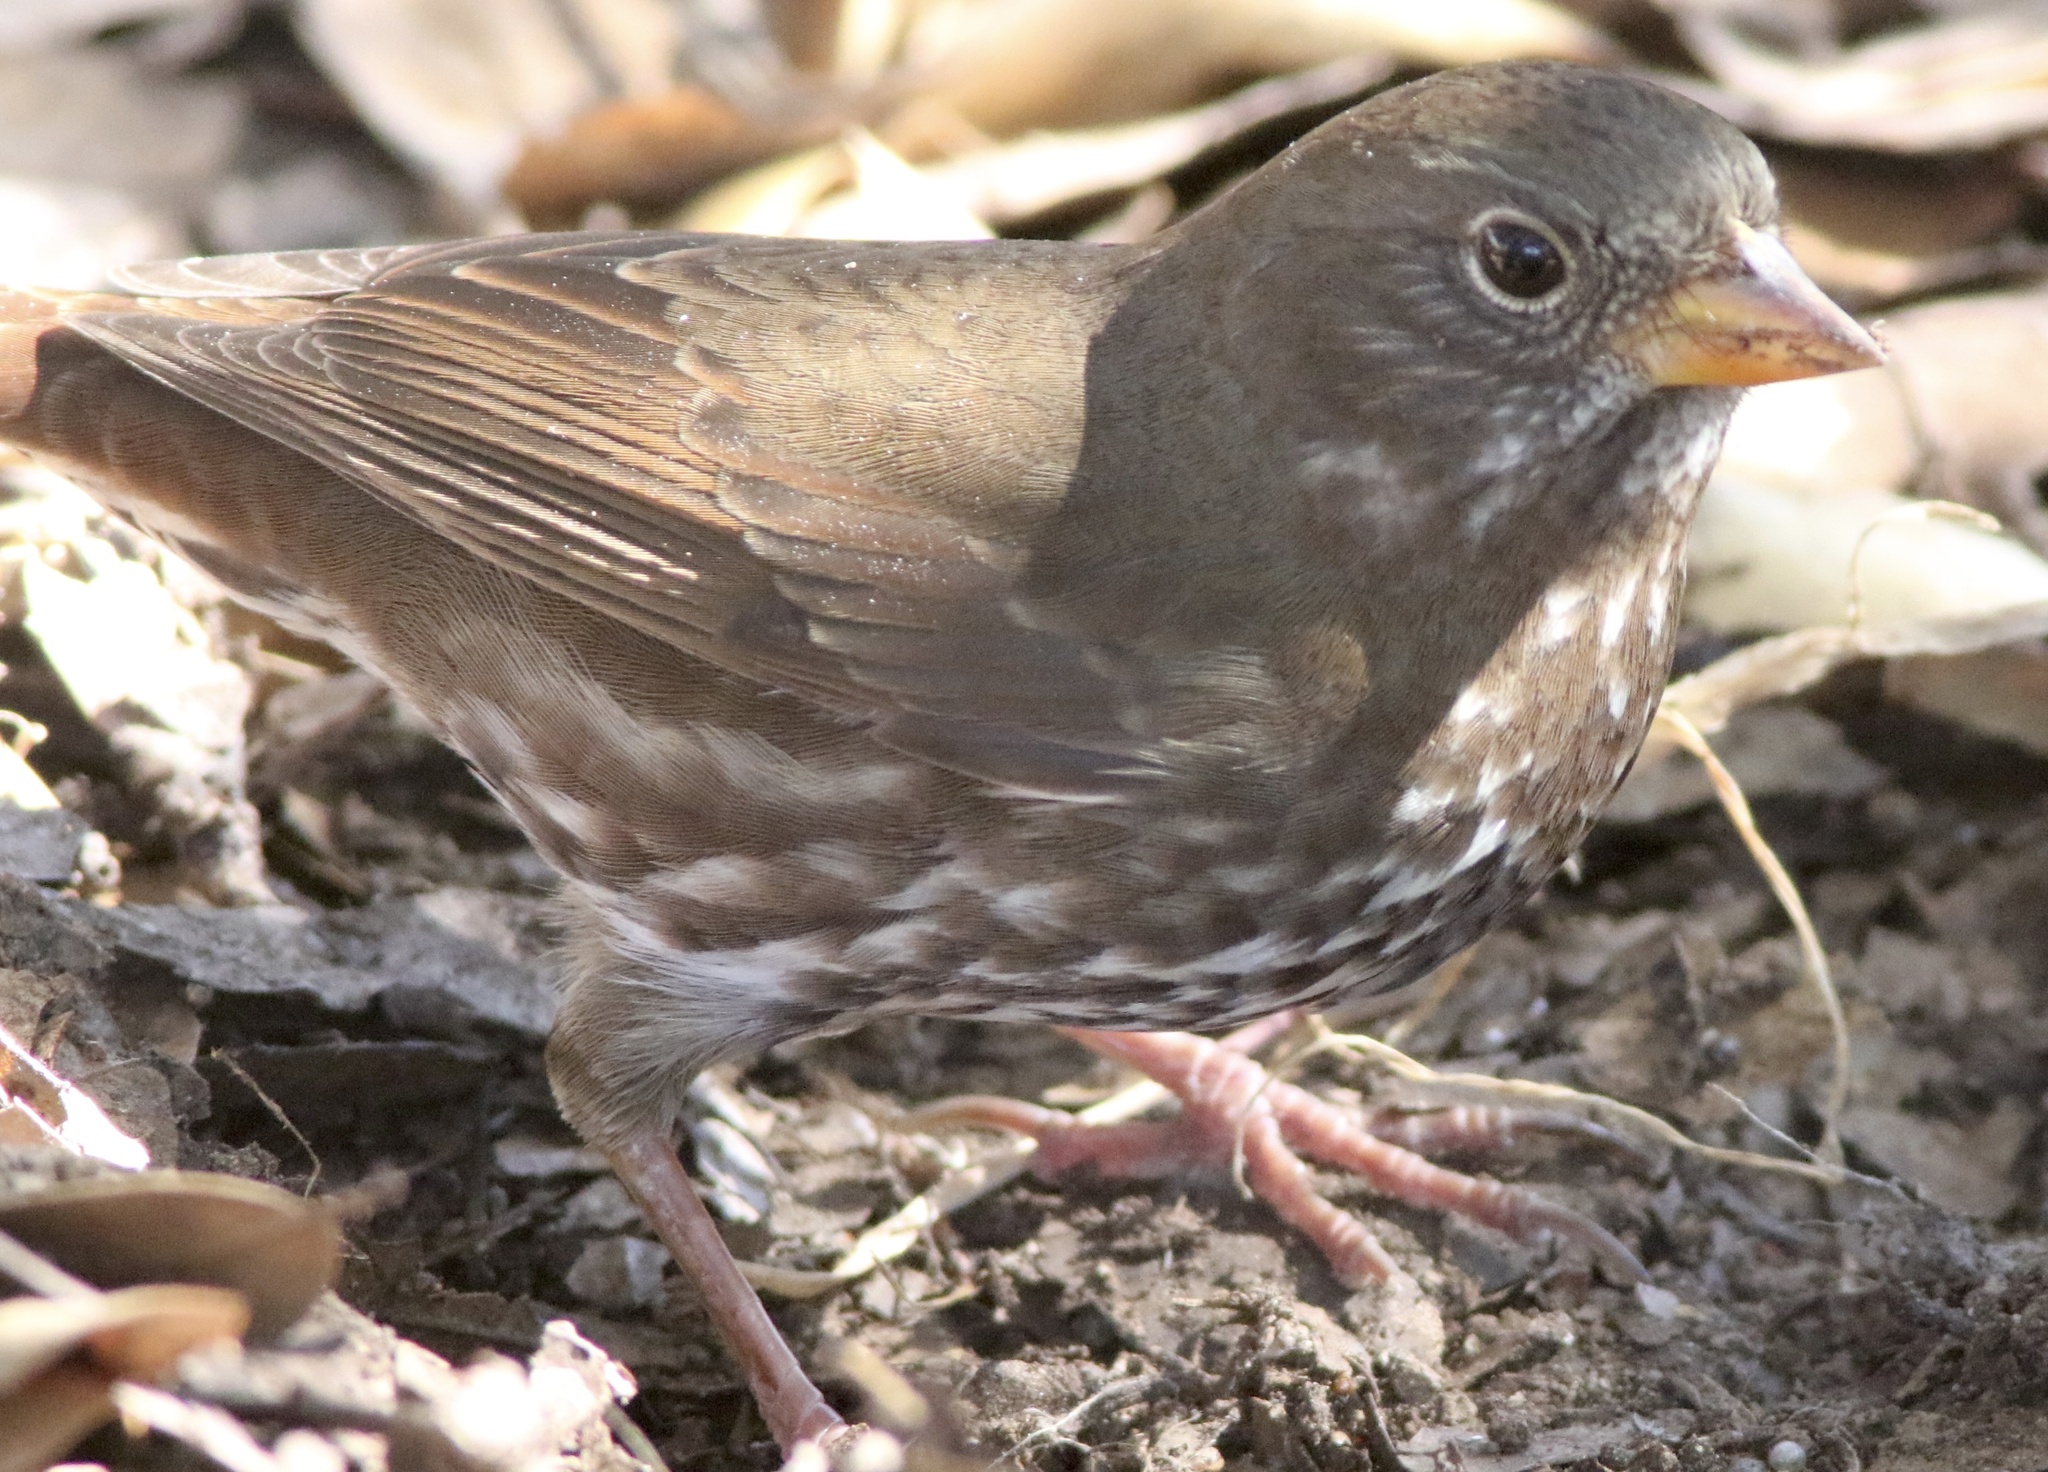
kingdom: Animalia
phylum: Chordata
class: Aves
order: Passeriformes
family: Passerellidae
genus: Passerella
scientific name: Passerella iliaca
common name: Fox sparrow
